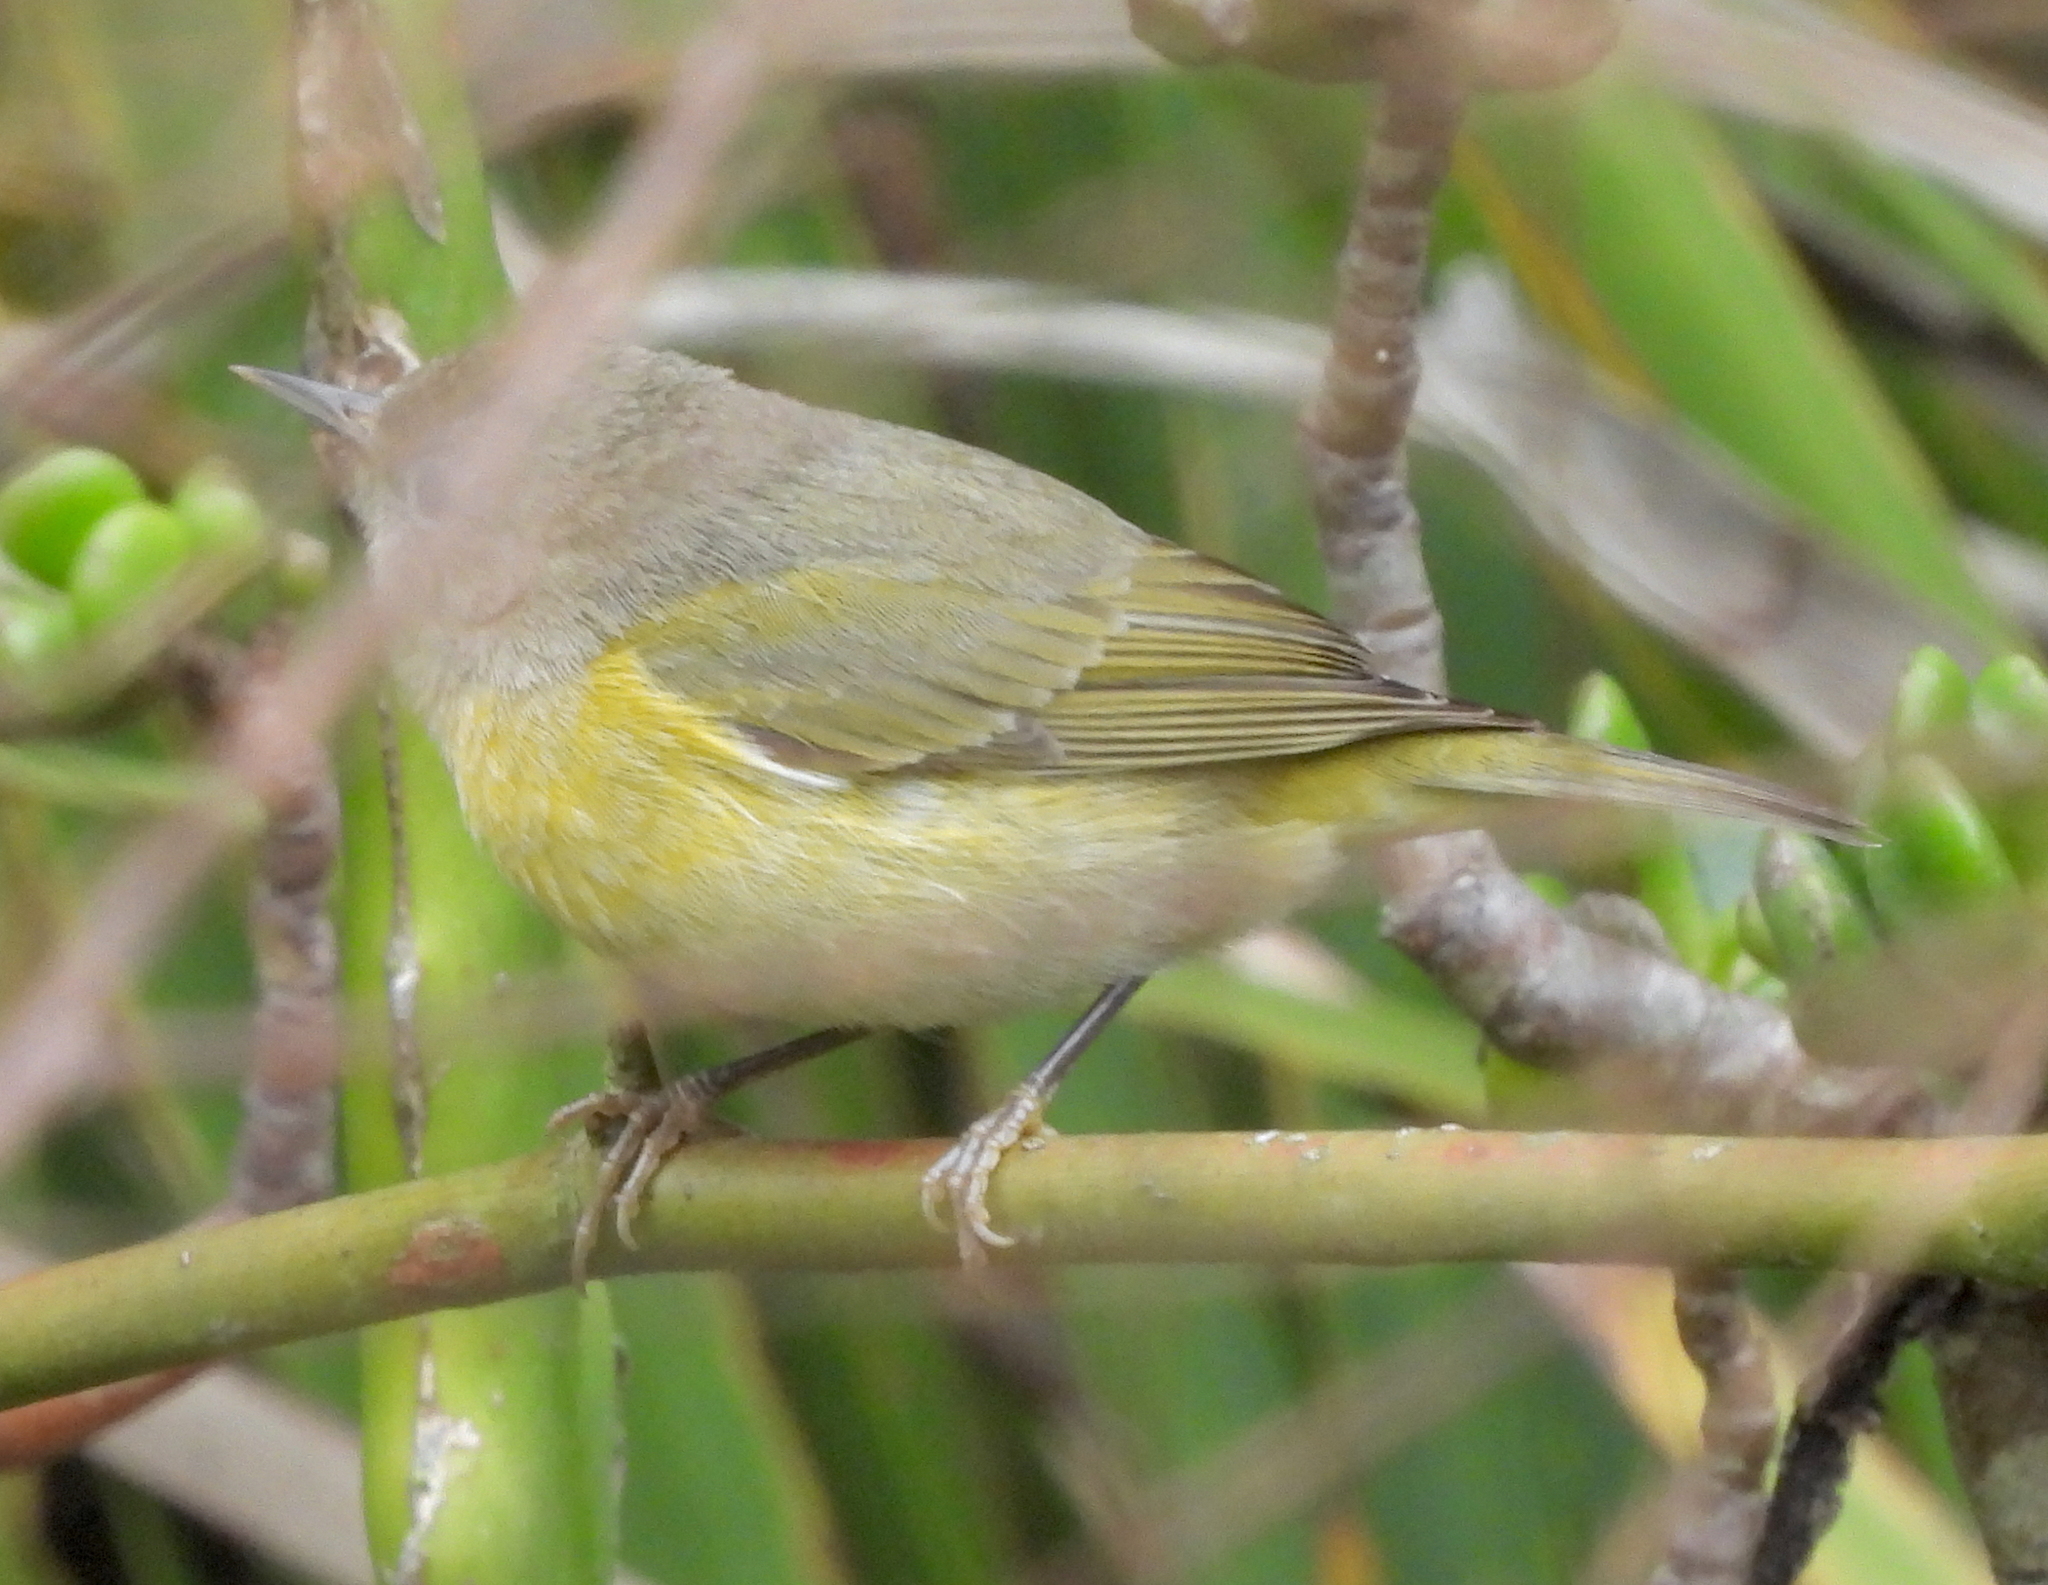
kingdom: Animalia
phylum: Chordata
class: Aves
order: Passeriformes
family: Parulidae
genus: Leiothlypis
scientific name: Leiothlypis ruficapilla
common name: Nashville warbler
